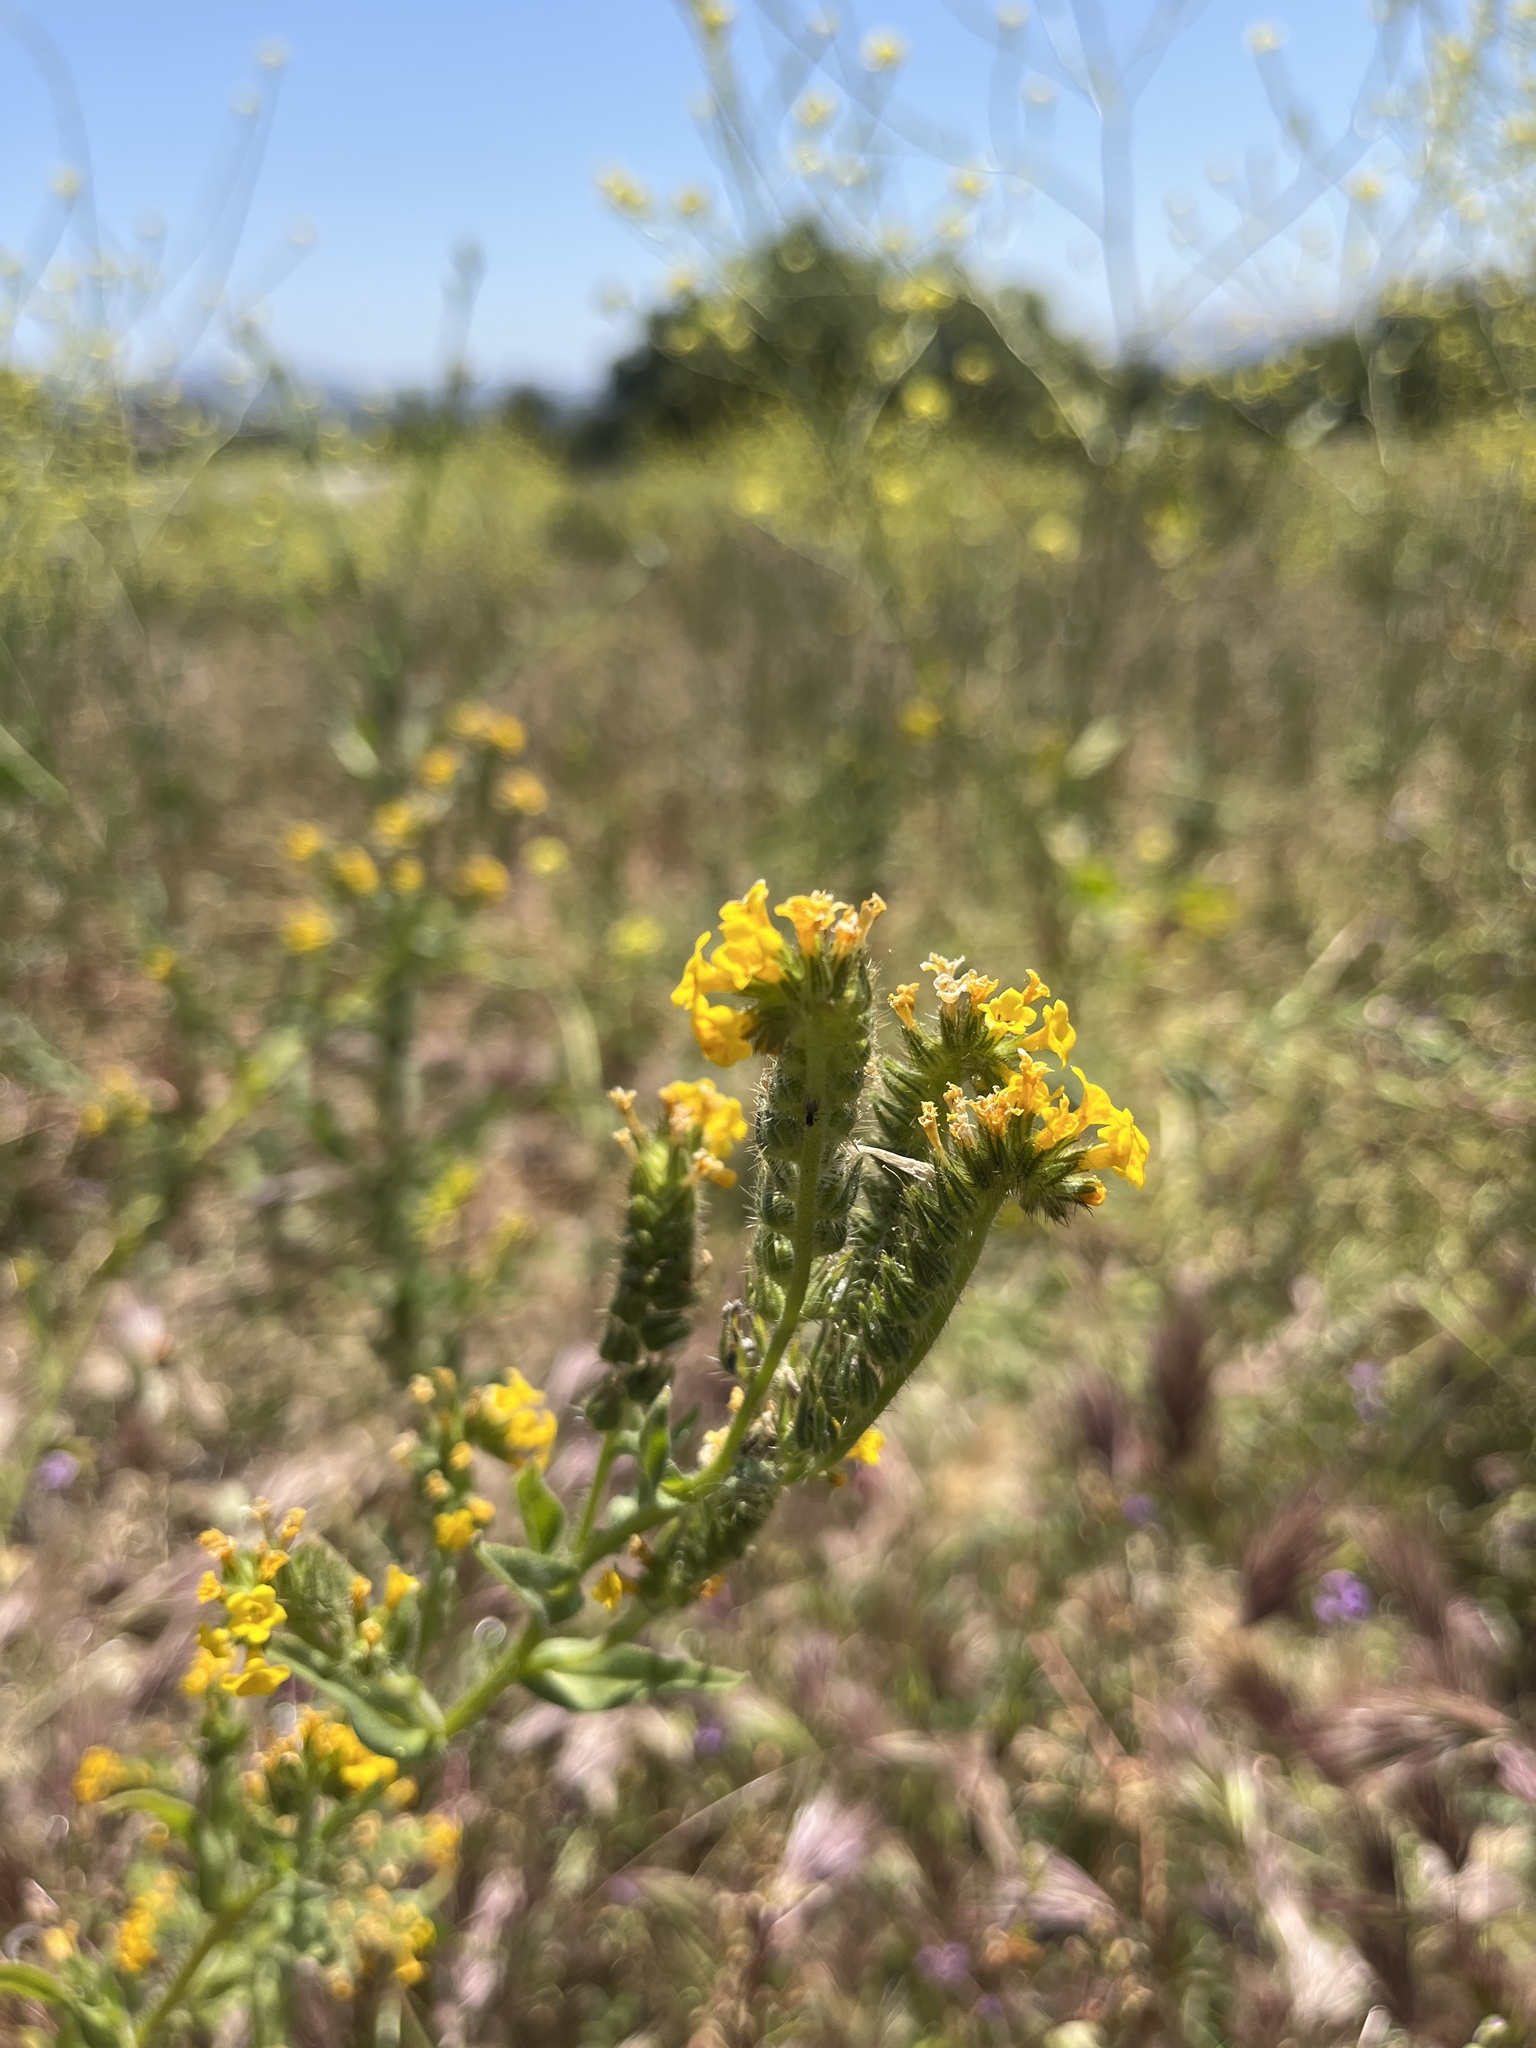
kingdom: Plantae
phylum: Tracheophyta
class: Magnoliopsida
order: Boraginales
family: Boraginaceae
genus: Amsinckia
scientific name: Amsinckia menziesii
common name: Menzies' fiddleneck
